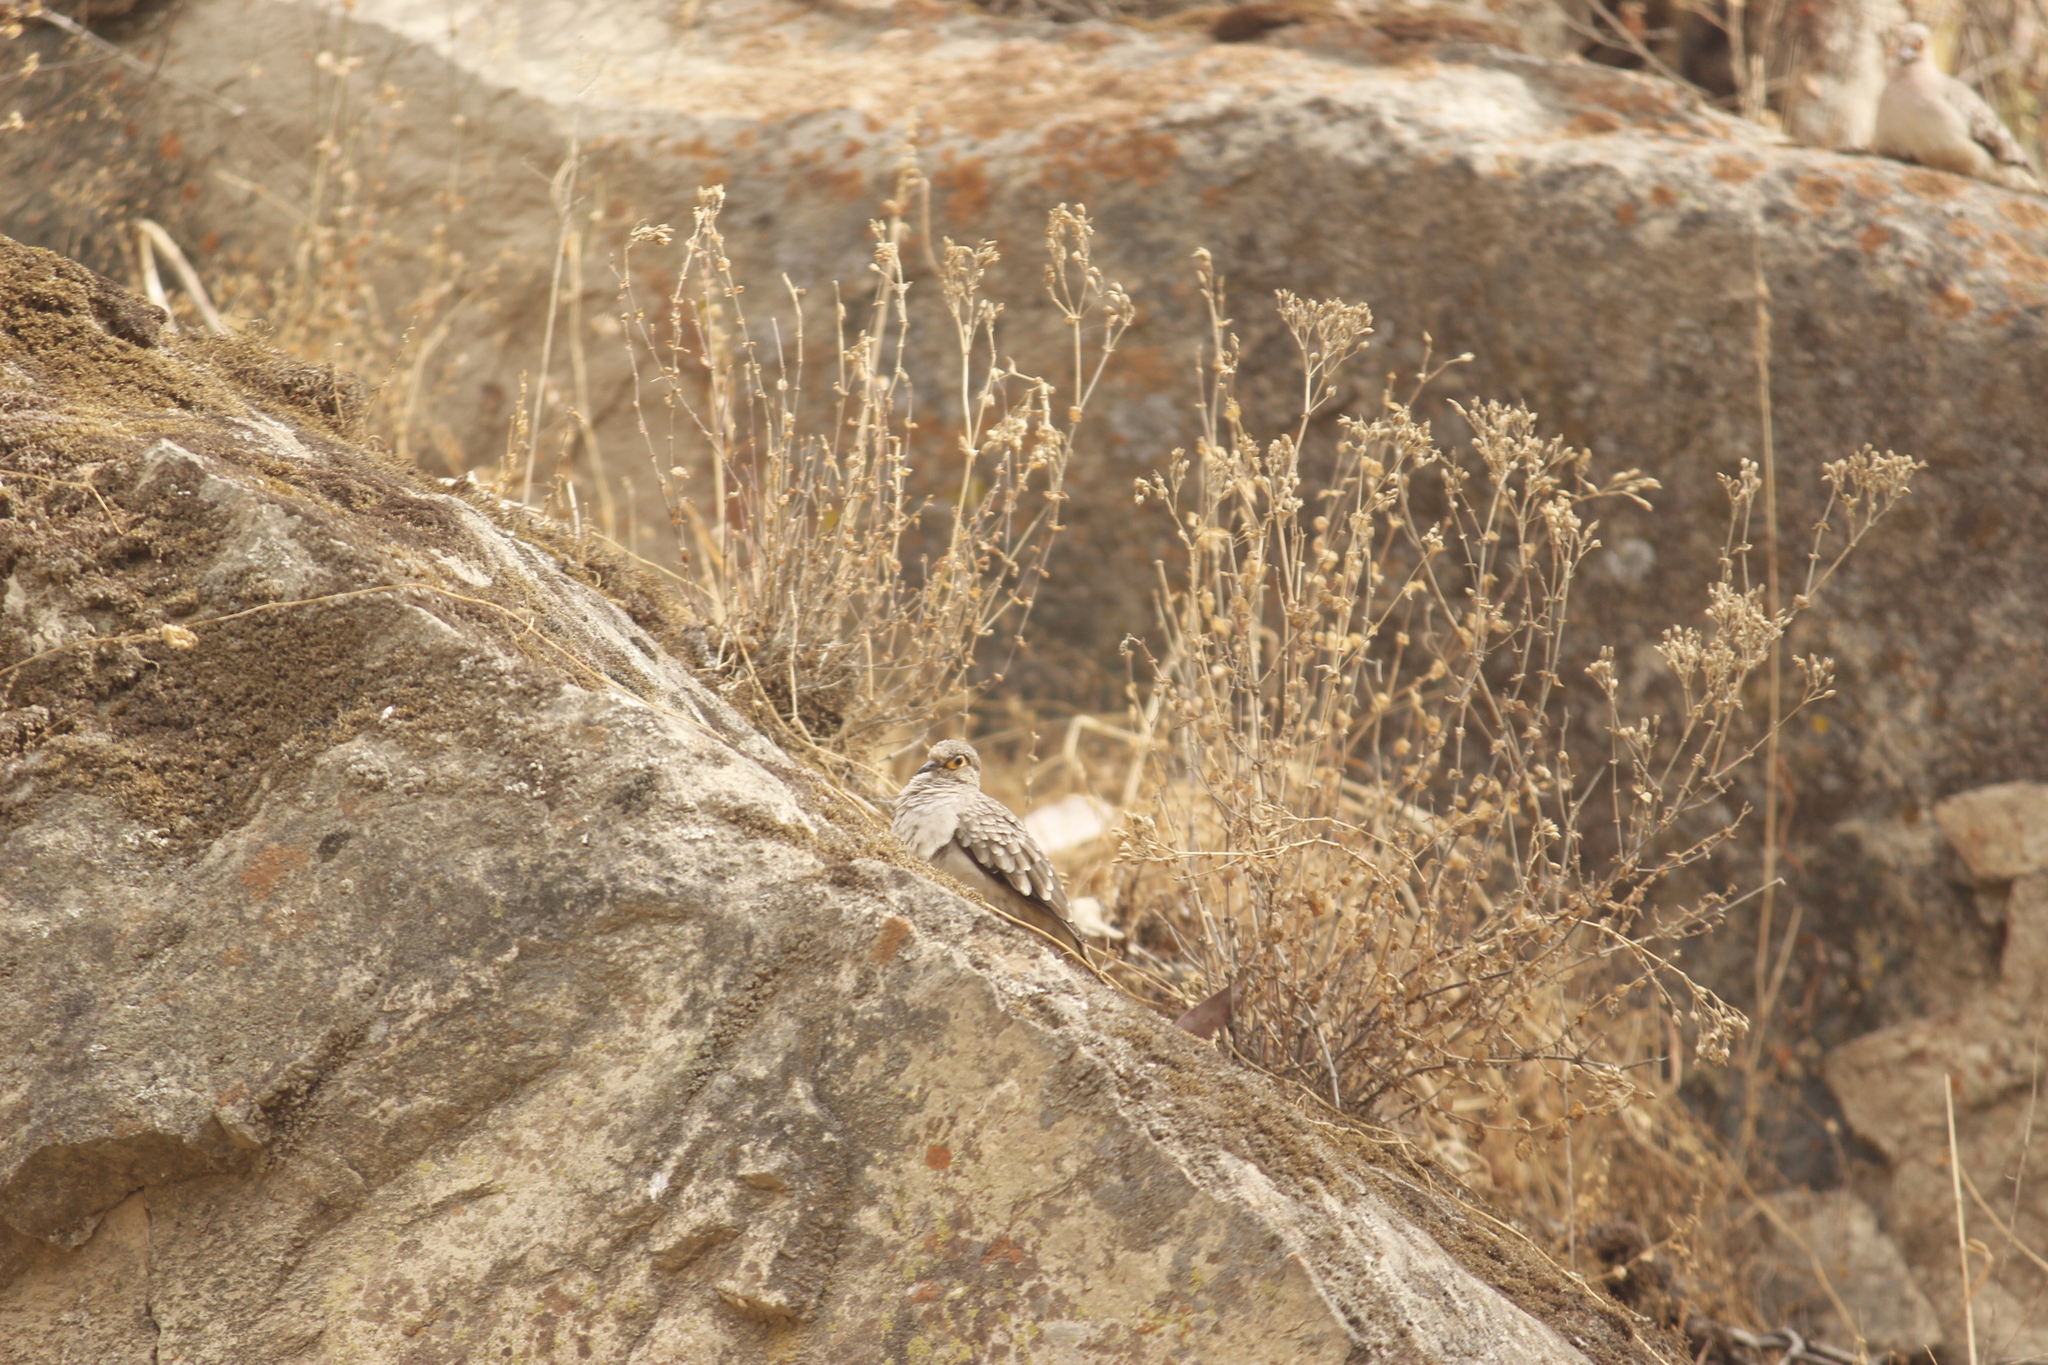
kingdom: Animalia
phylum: Chordata
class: Aves
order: Columbiformes
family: Columbidae
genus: Metriopelia
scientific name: Metriopelia ceciliae
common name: Bare-faced ground dove
